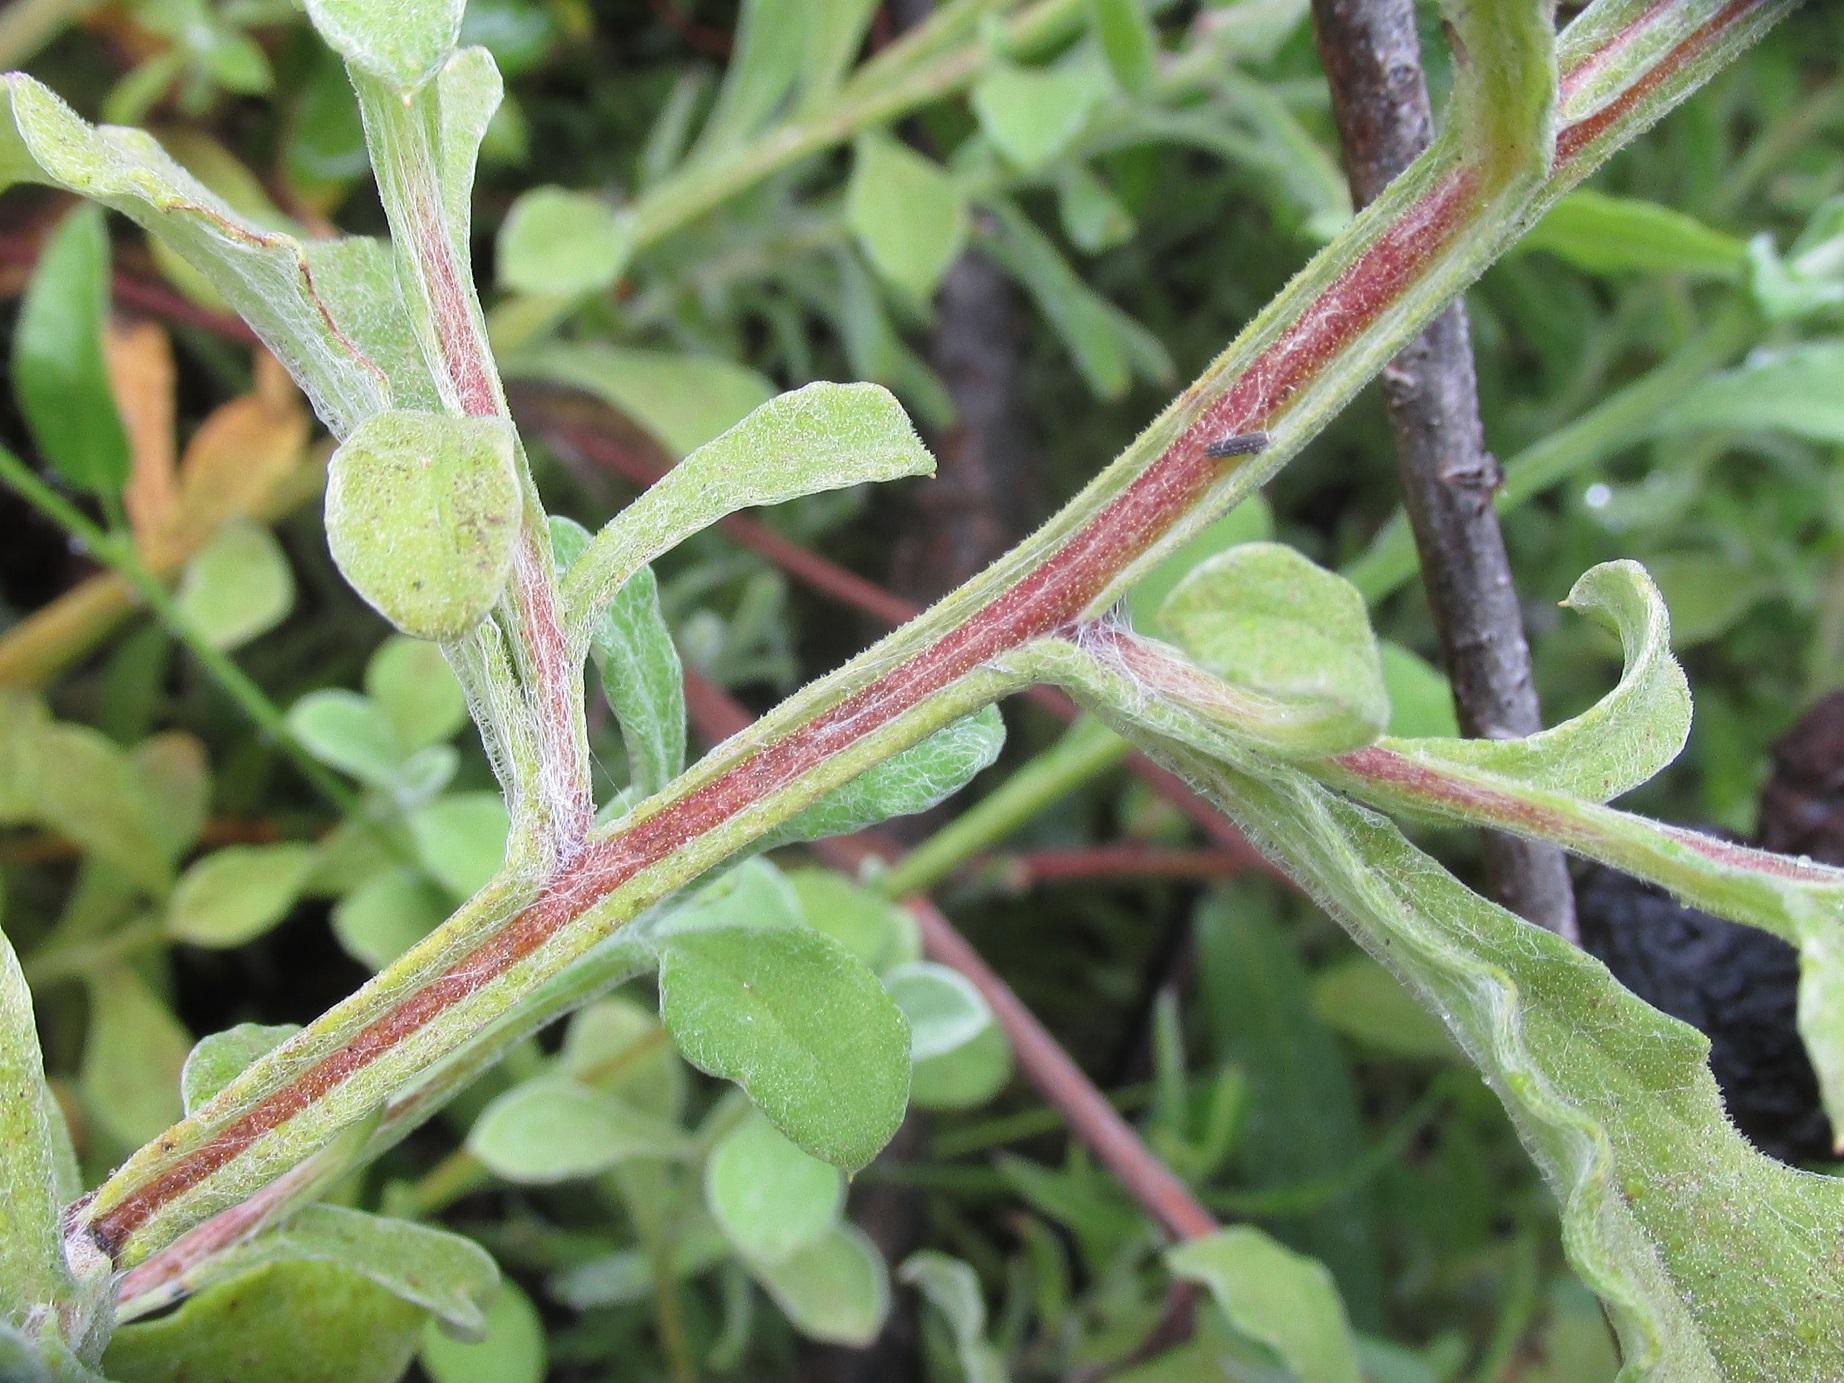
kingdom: Plantae
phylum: Tracheophyta
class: Magnoliopsida
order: Asterales
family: Asteraceae
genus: Helichrysum
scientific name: Helichrysum odoratissimum
